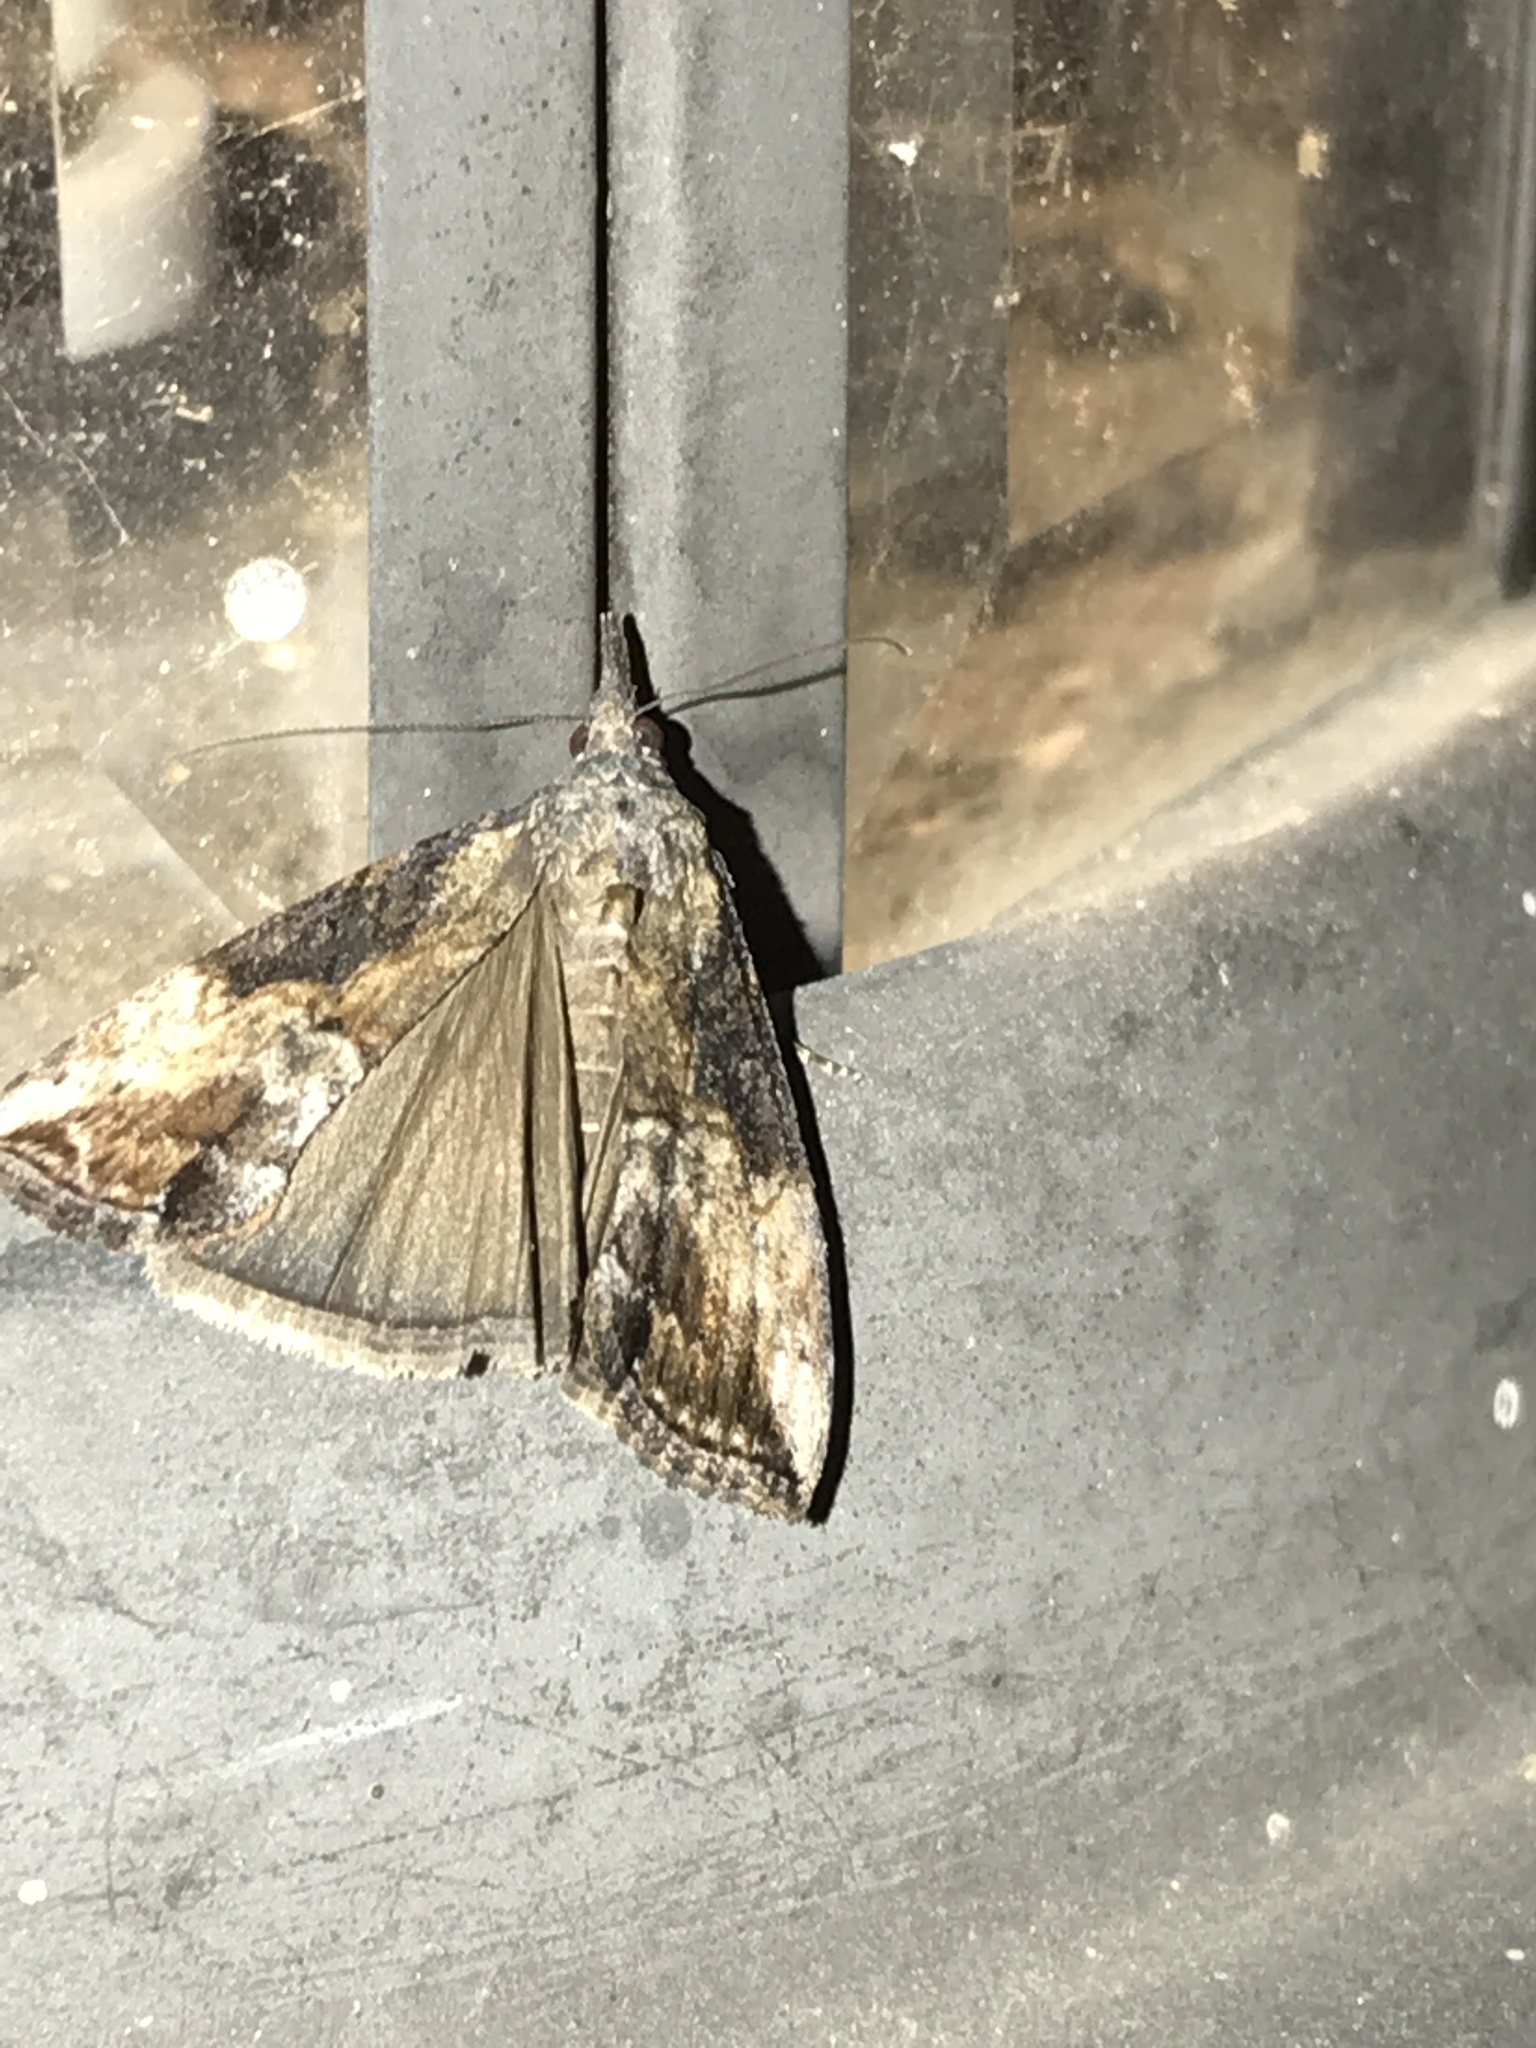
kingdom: Animalia
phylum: Arthropoda
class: Insecta
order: Lepidoptera
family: Erebidae
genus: Hypena
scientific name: Hypena scabra
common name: Green cloverworm
